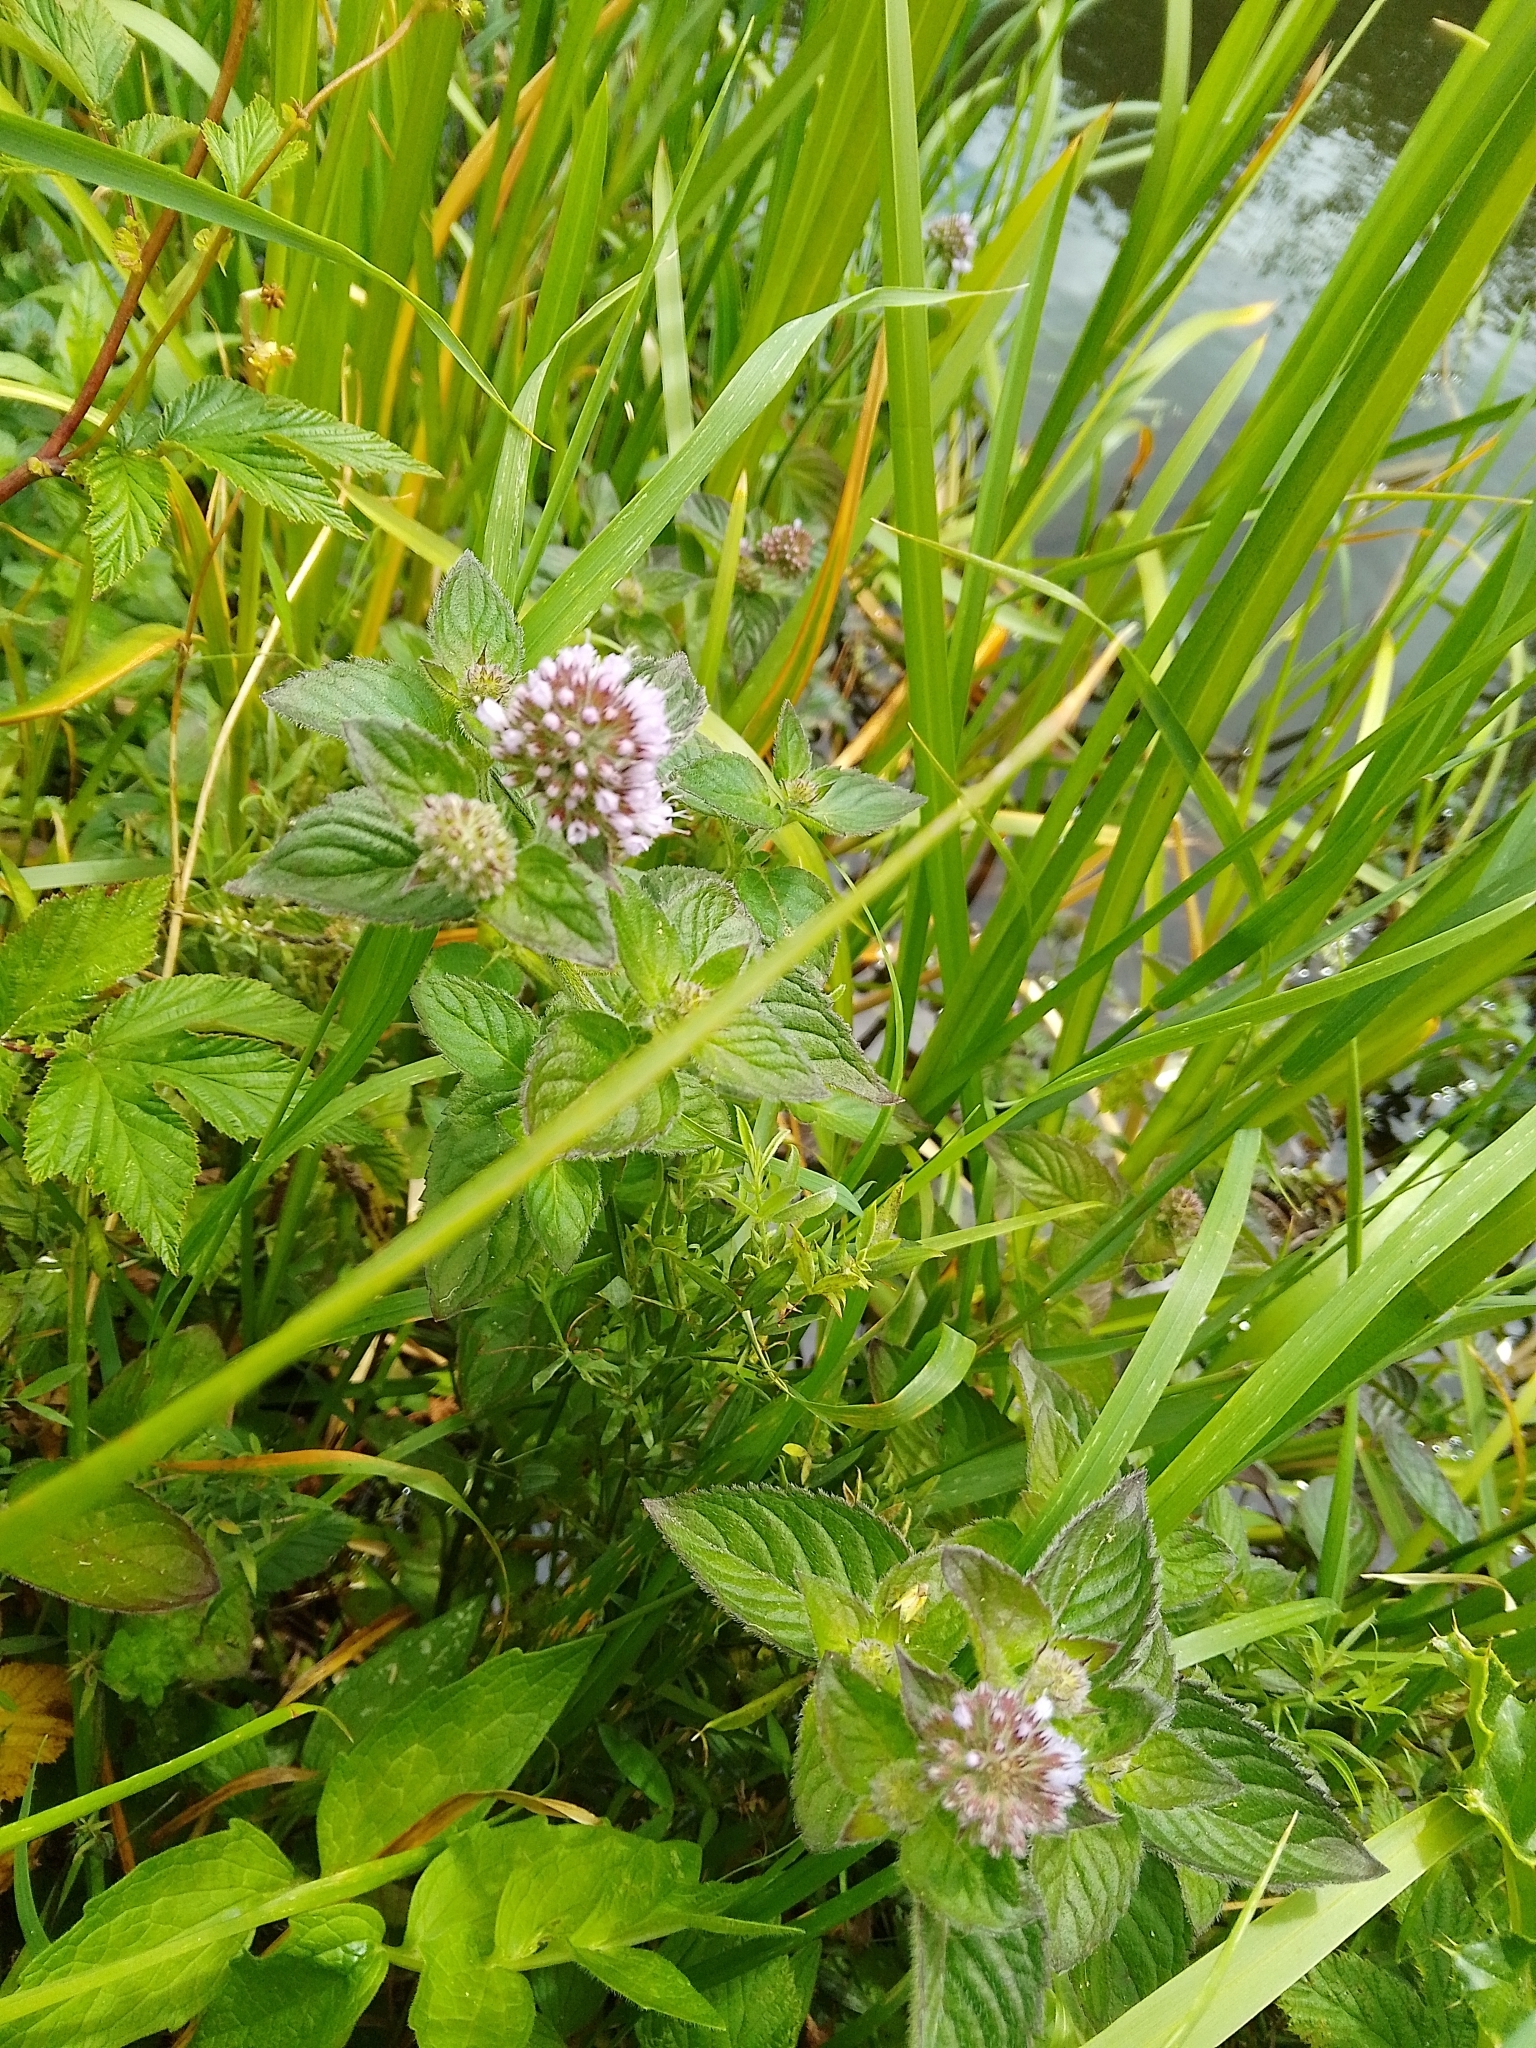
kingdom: Plantae
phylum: Tracheophyta
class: Magnoliopsida
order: Lamiales
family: Lamiaceae
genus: Mentha
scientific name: Mentha aquatica
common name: Water mint
